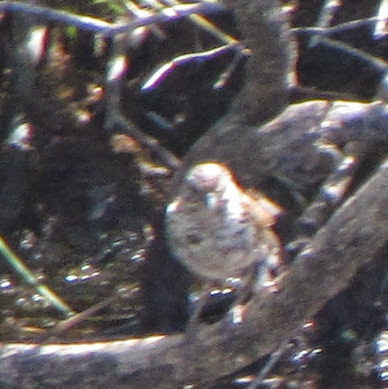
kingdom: Animalia
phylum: Chordata
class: Aves
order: Passeriformes
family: Passerellidae
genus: Melospiza
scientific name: Melospiza melodia
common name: Song sparrow
